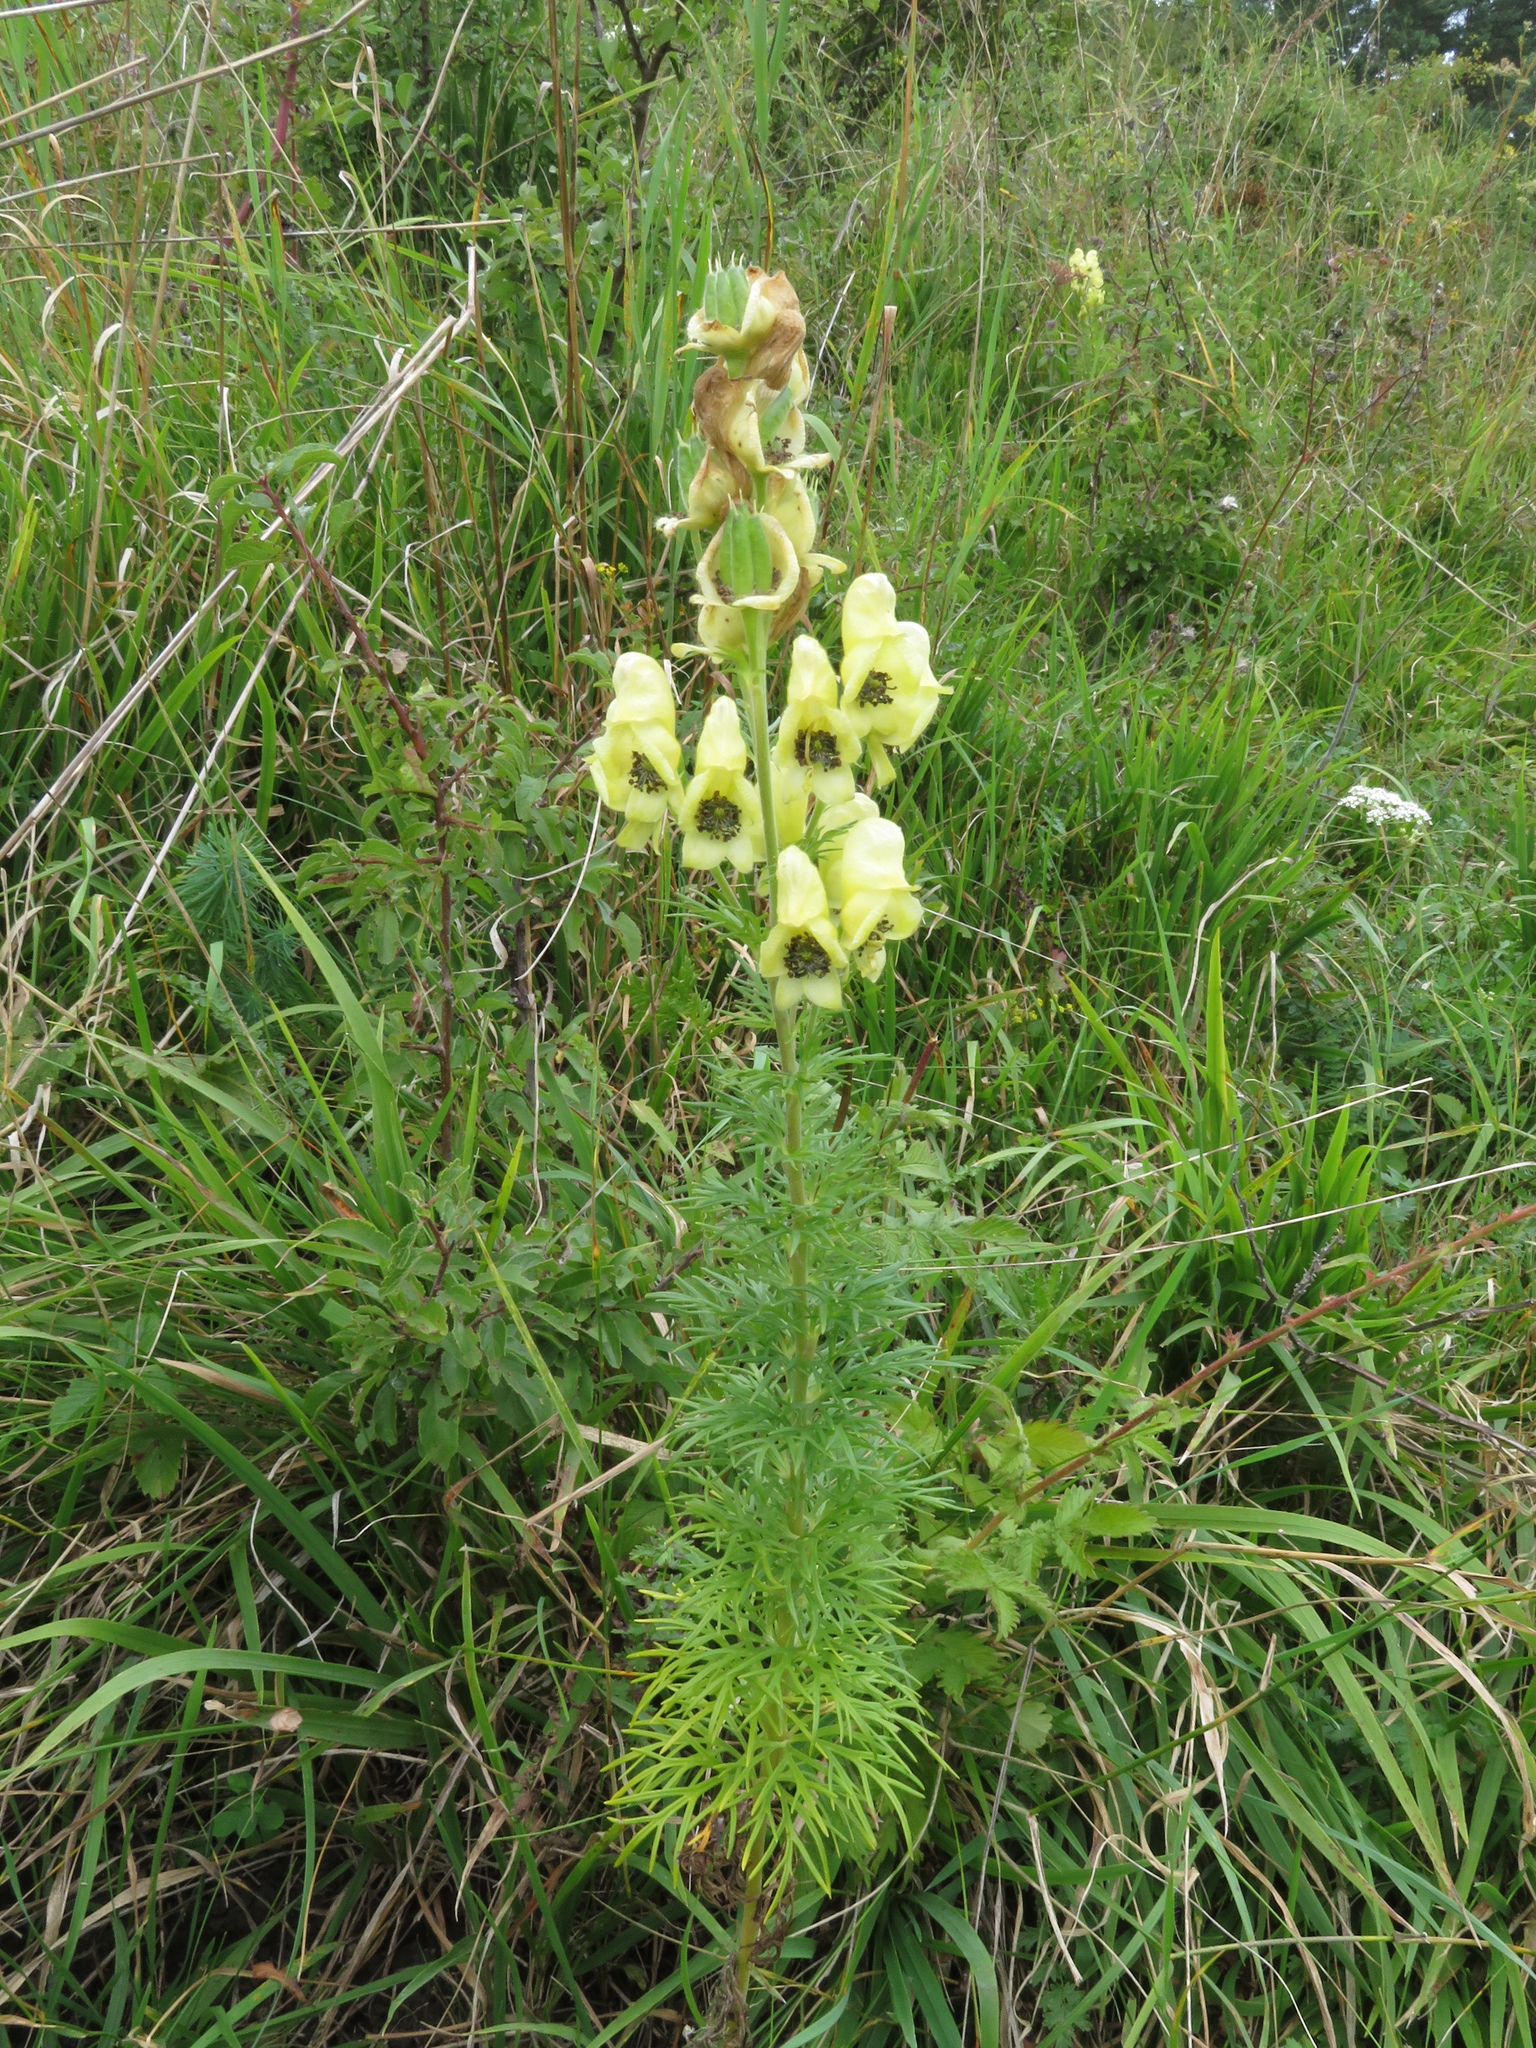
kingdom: Plantae
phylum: Tracheophyta
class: Magnoliopsida
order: Ranunculales
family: Ranunculaceae
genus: Aconitum
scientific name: Aconitum anthora
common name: Yellow monkshood
